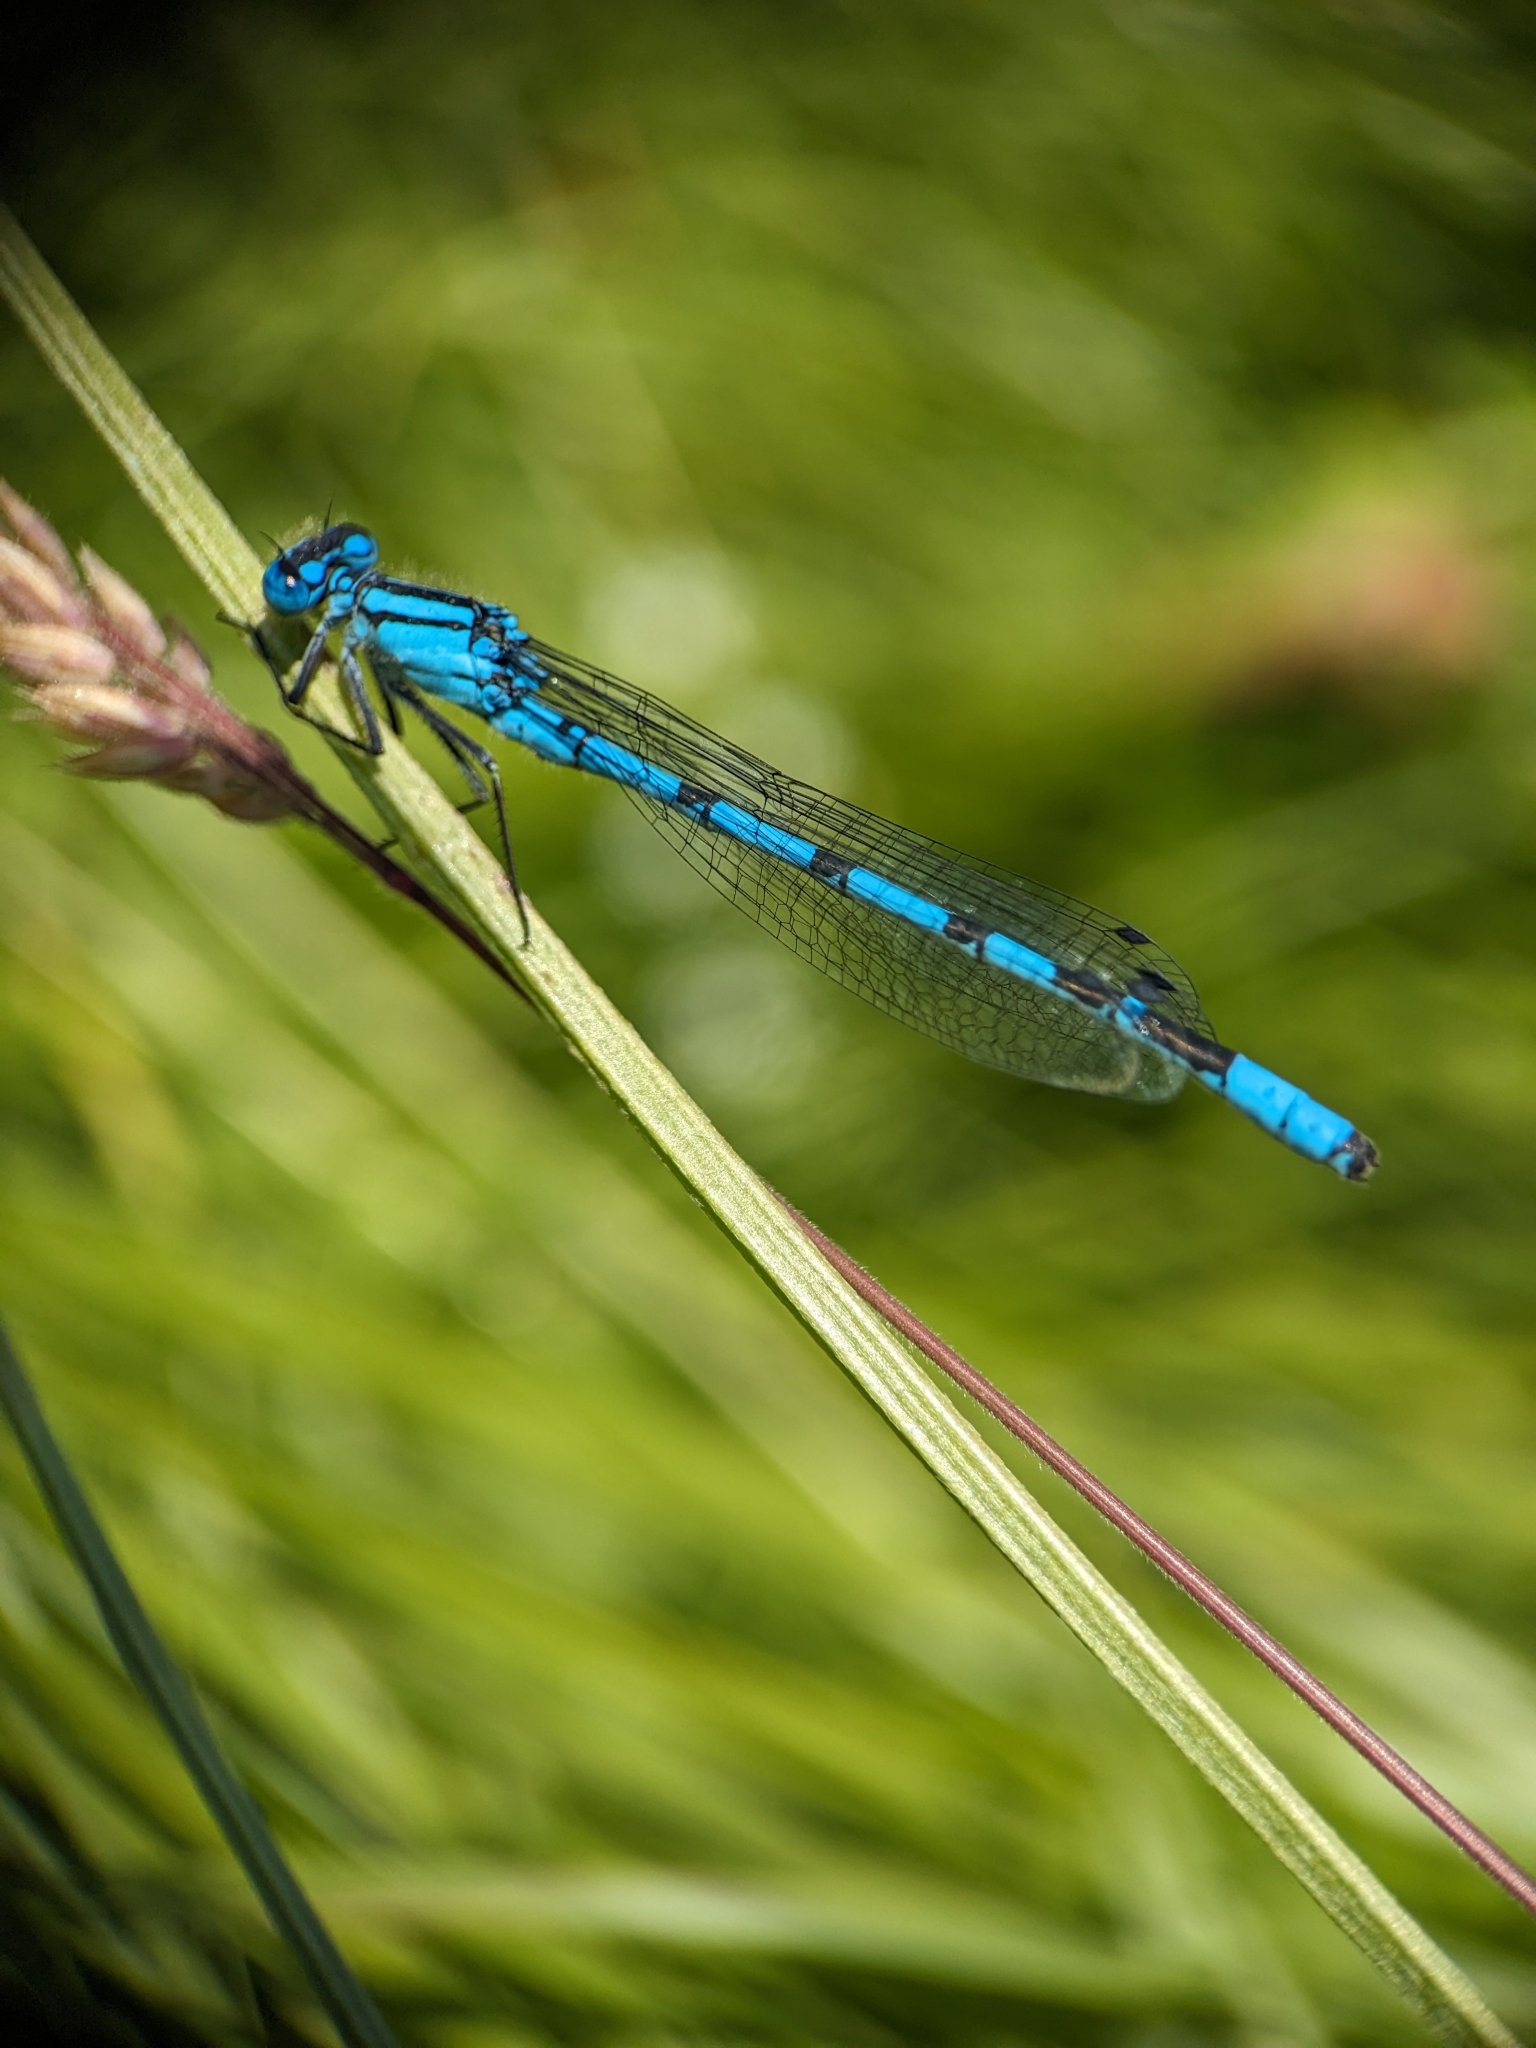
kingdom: Animalia
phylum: Arthropoda
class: Insecta
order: Odonata
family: Coenagrionidae
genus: Enallagma
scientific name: Enallagma cyathigerum
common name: Common blue damselfly
